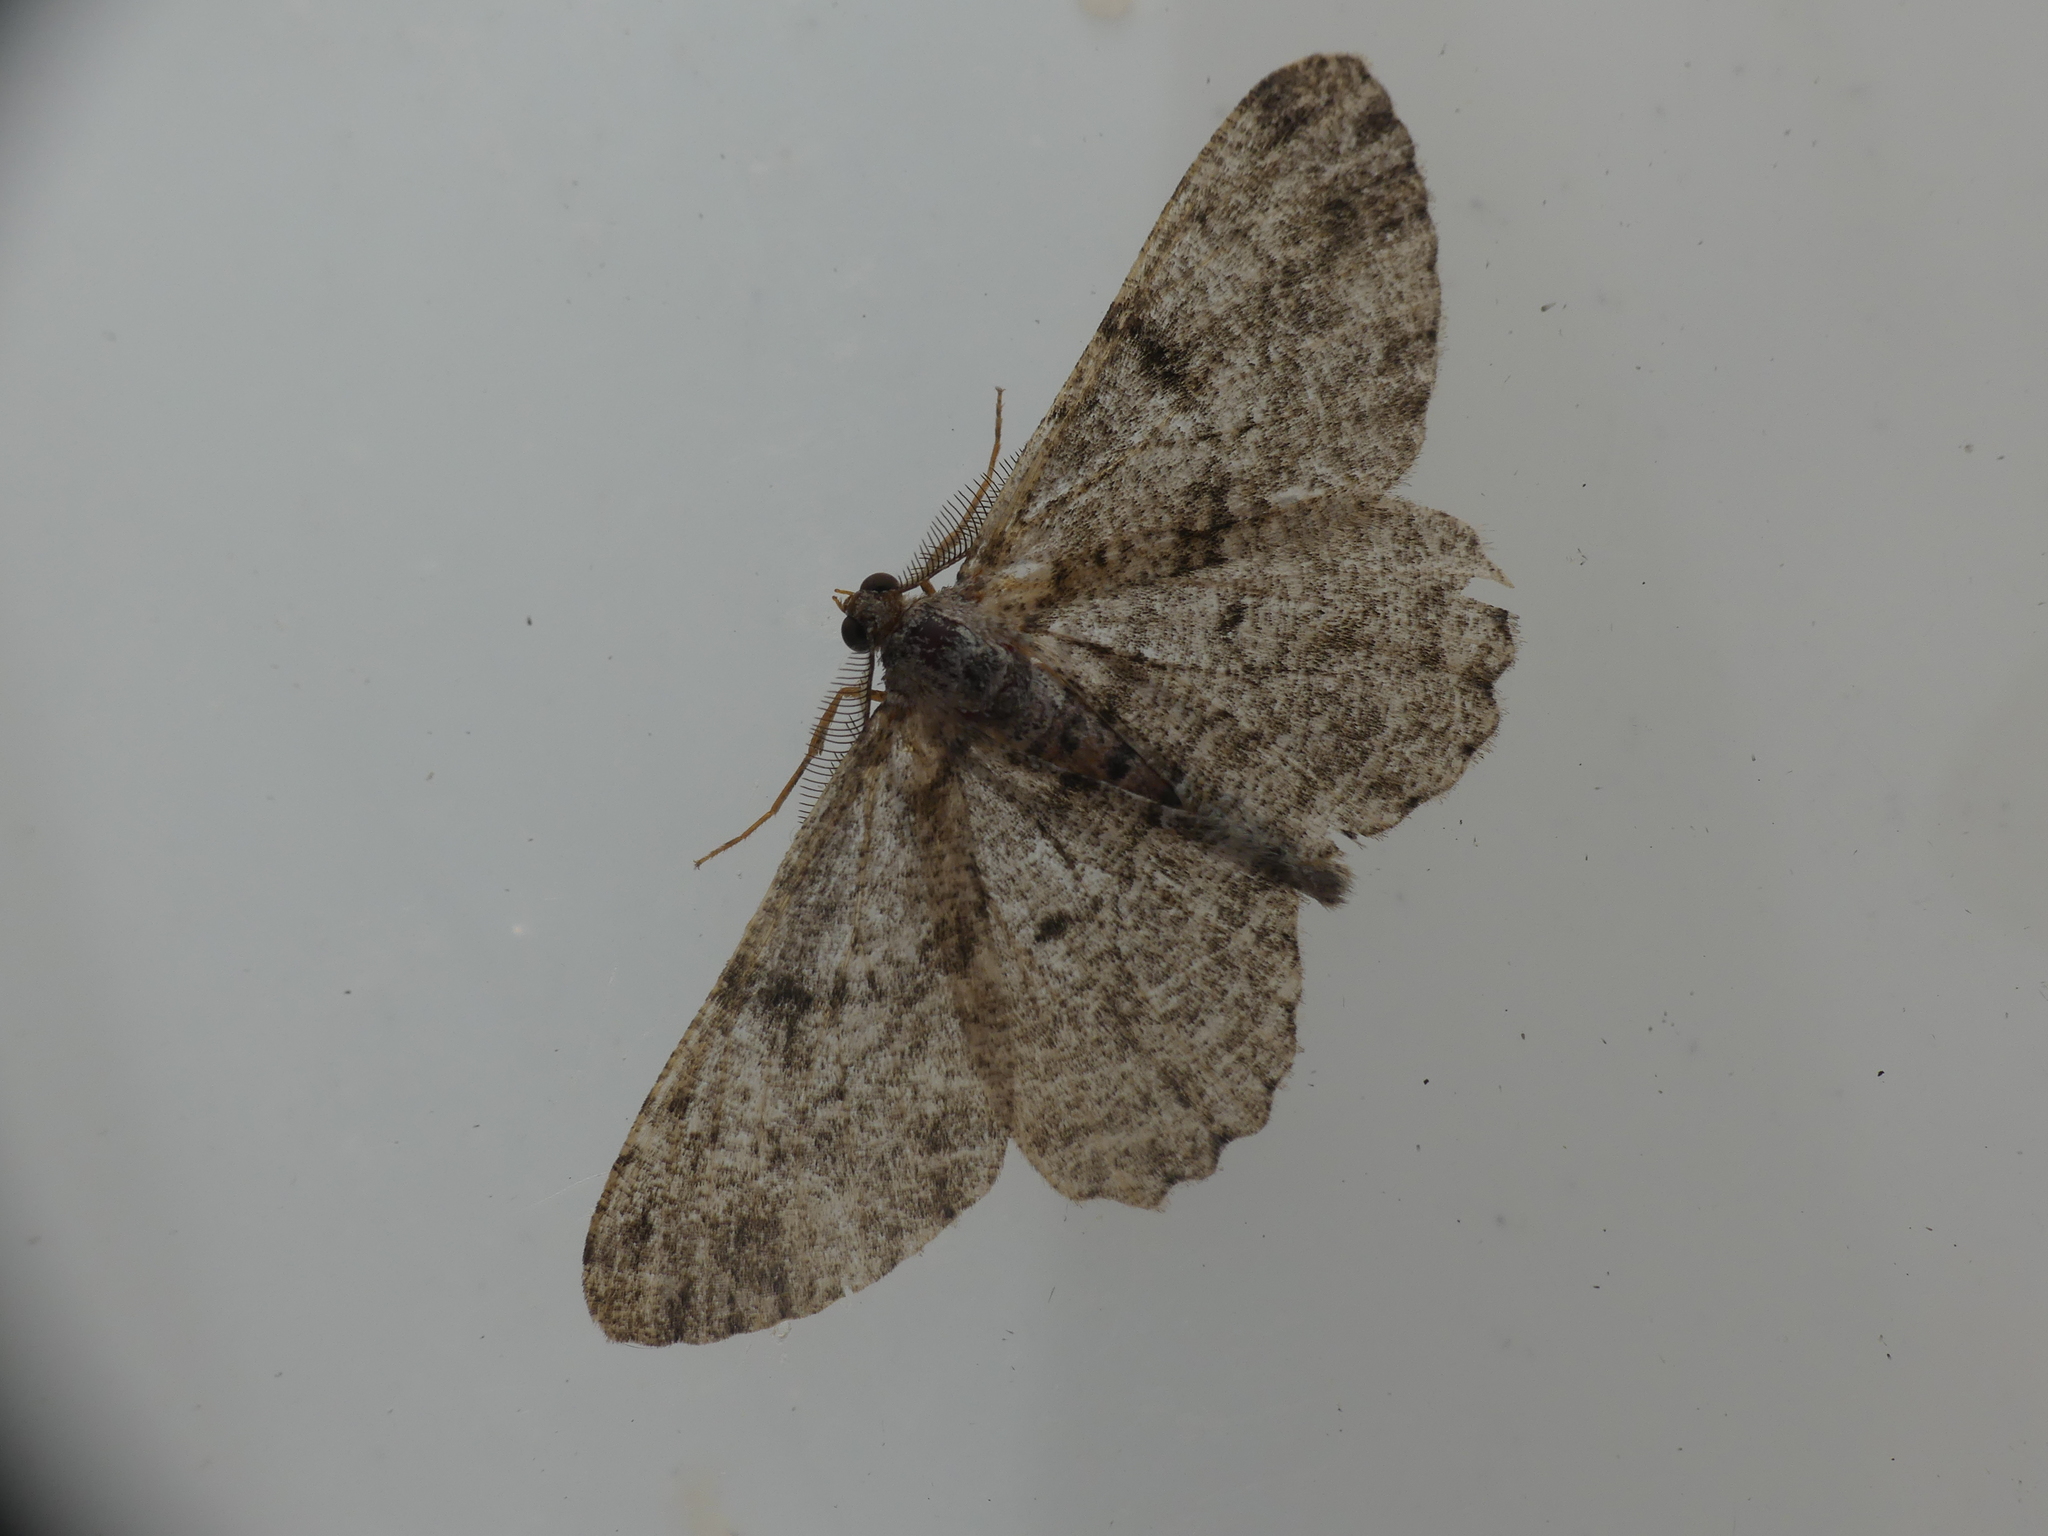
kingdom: Animalia
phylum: Arthropoda
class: Insecta
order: Lepidoptera
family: Geometridae
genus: Peribatodes
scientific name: Peribatodes rhomboidaria
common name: Willow beauty
